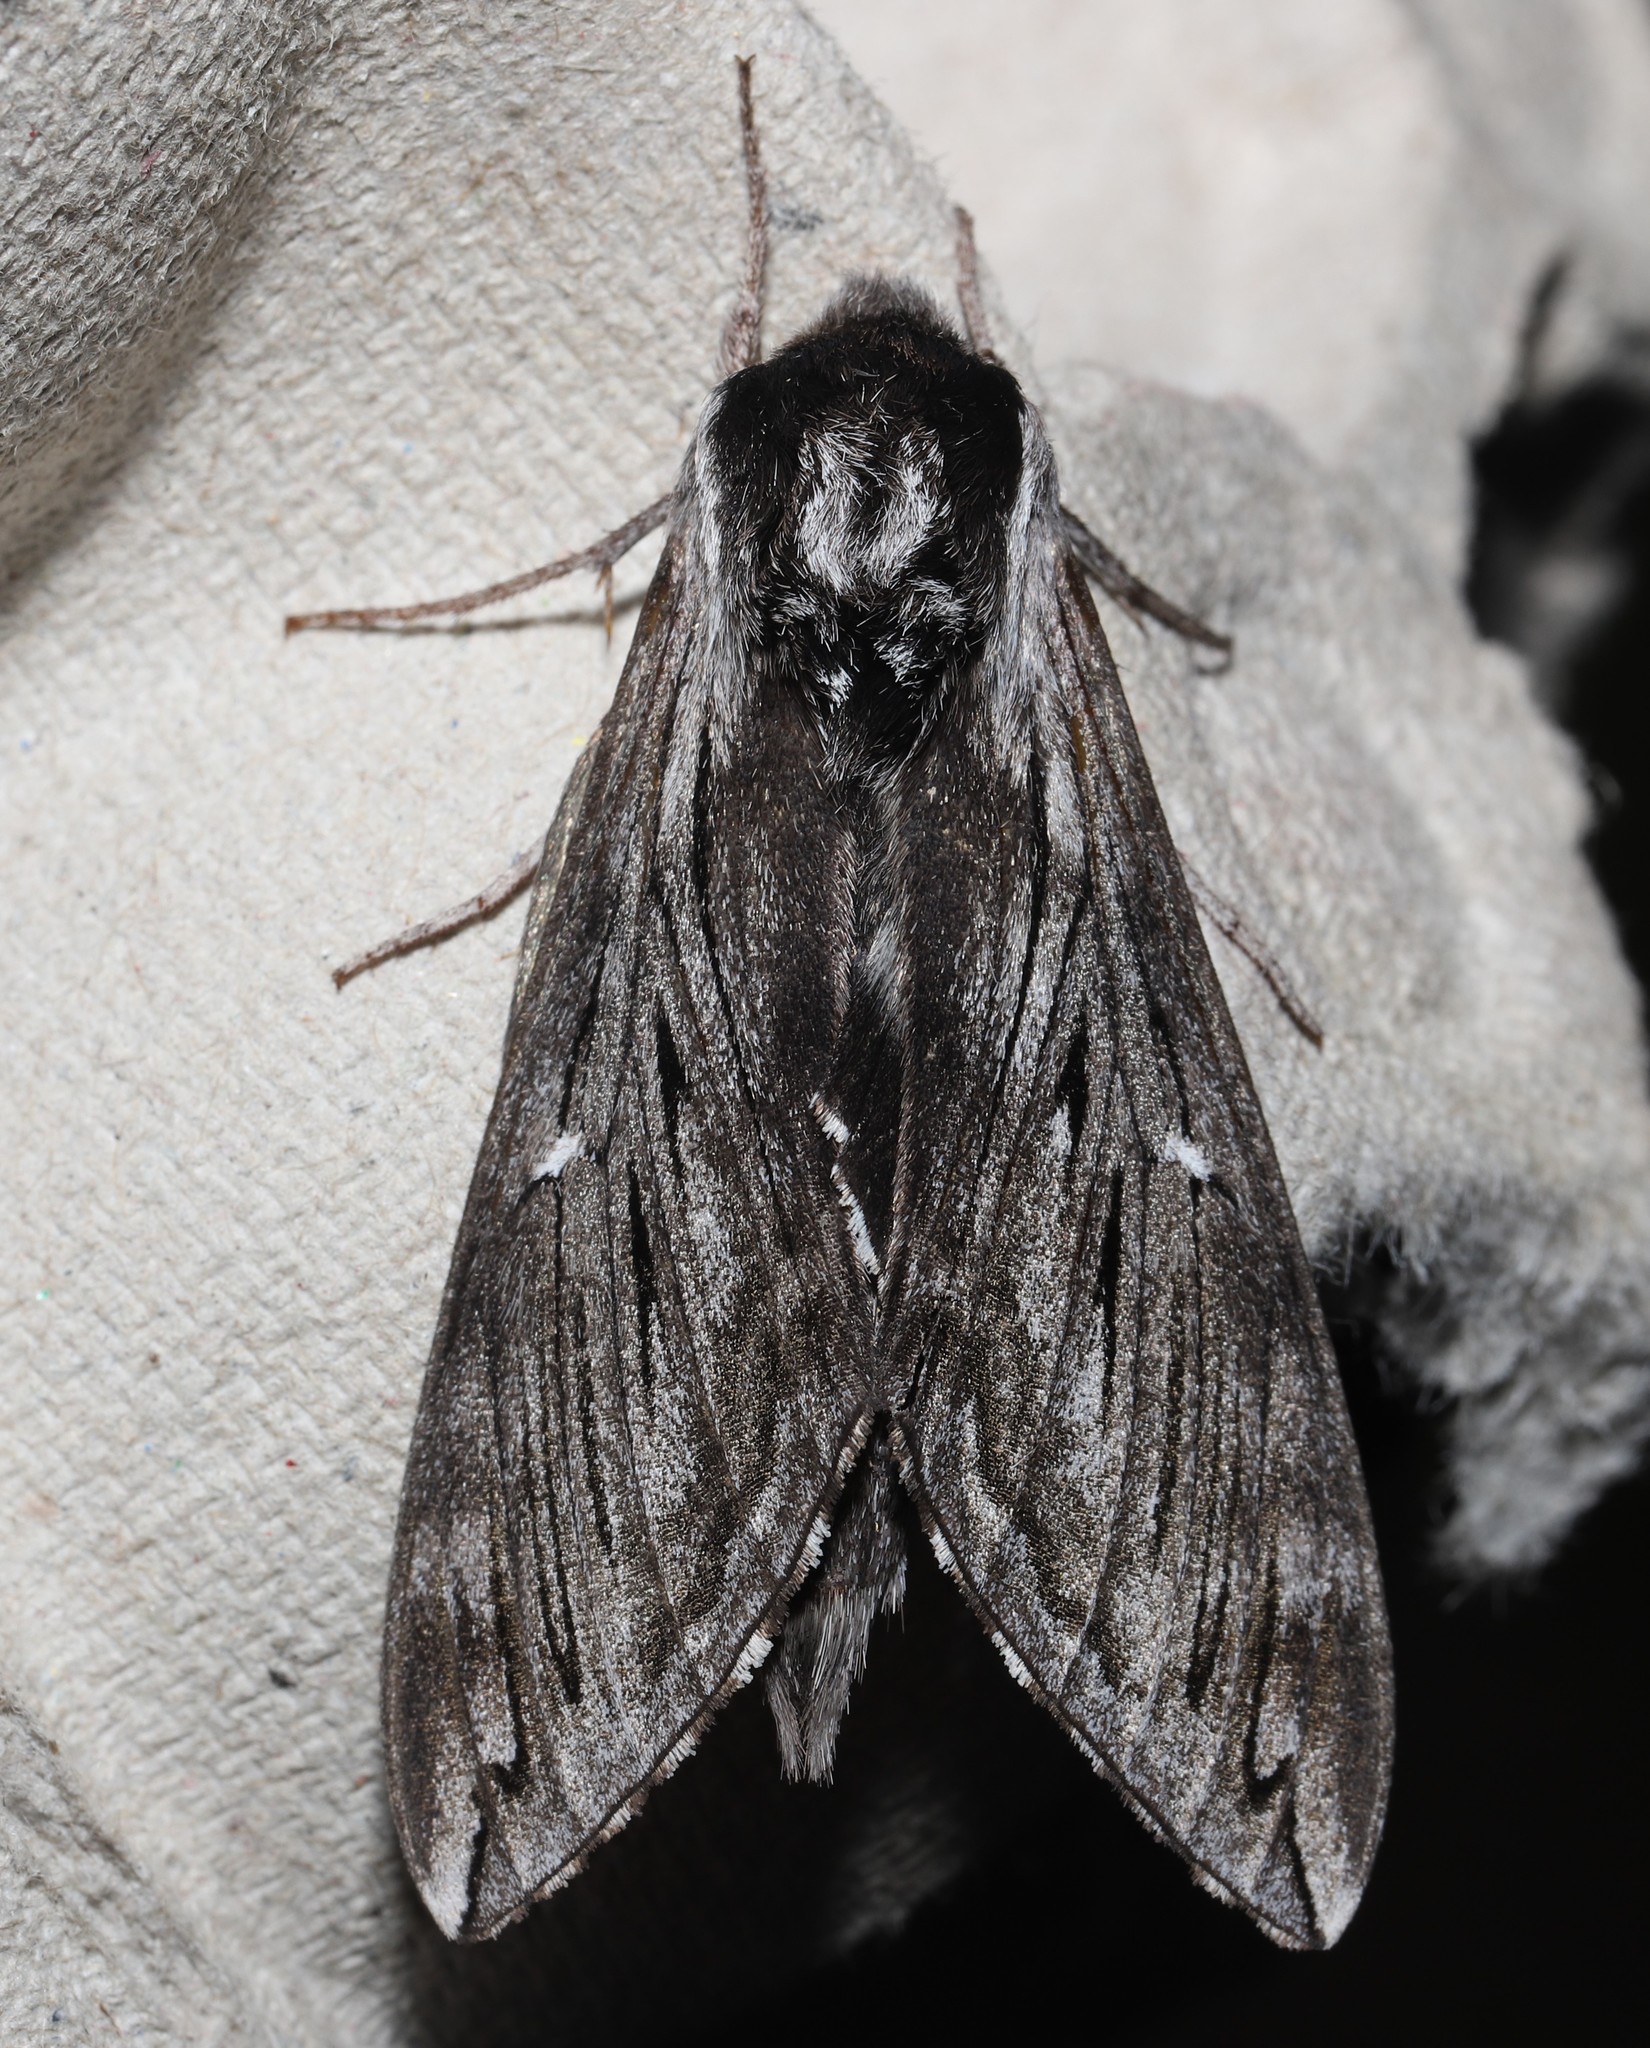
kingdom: Animalia
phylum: Arthropoda
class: Insecta
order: Lepidoptera
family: Sphingidae
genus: Sphinx
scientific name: Sphinx poecila
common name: Northern apple sphinx
